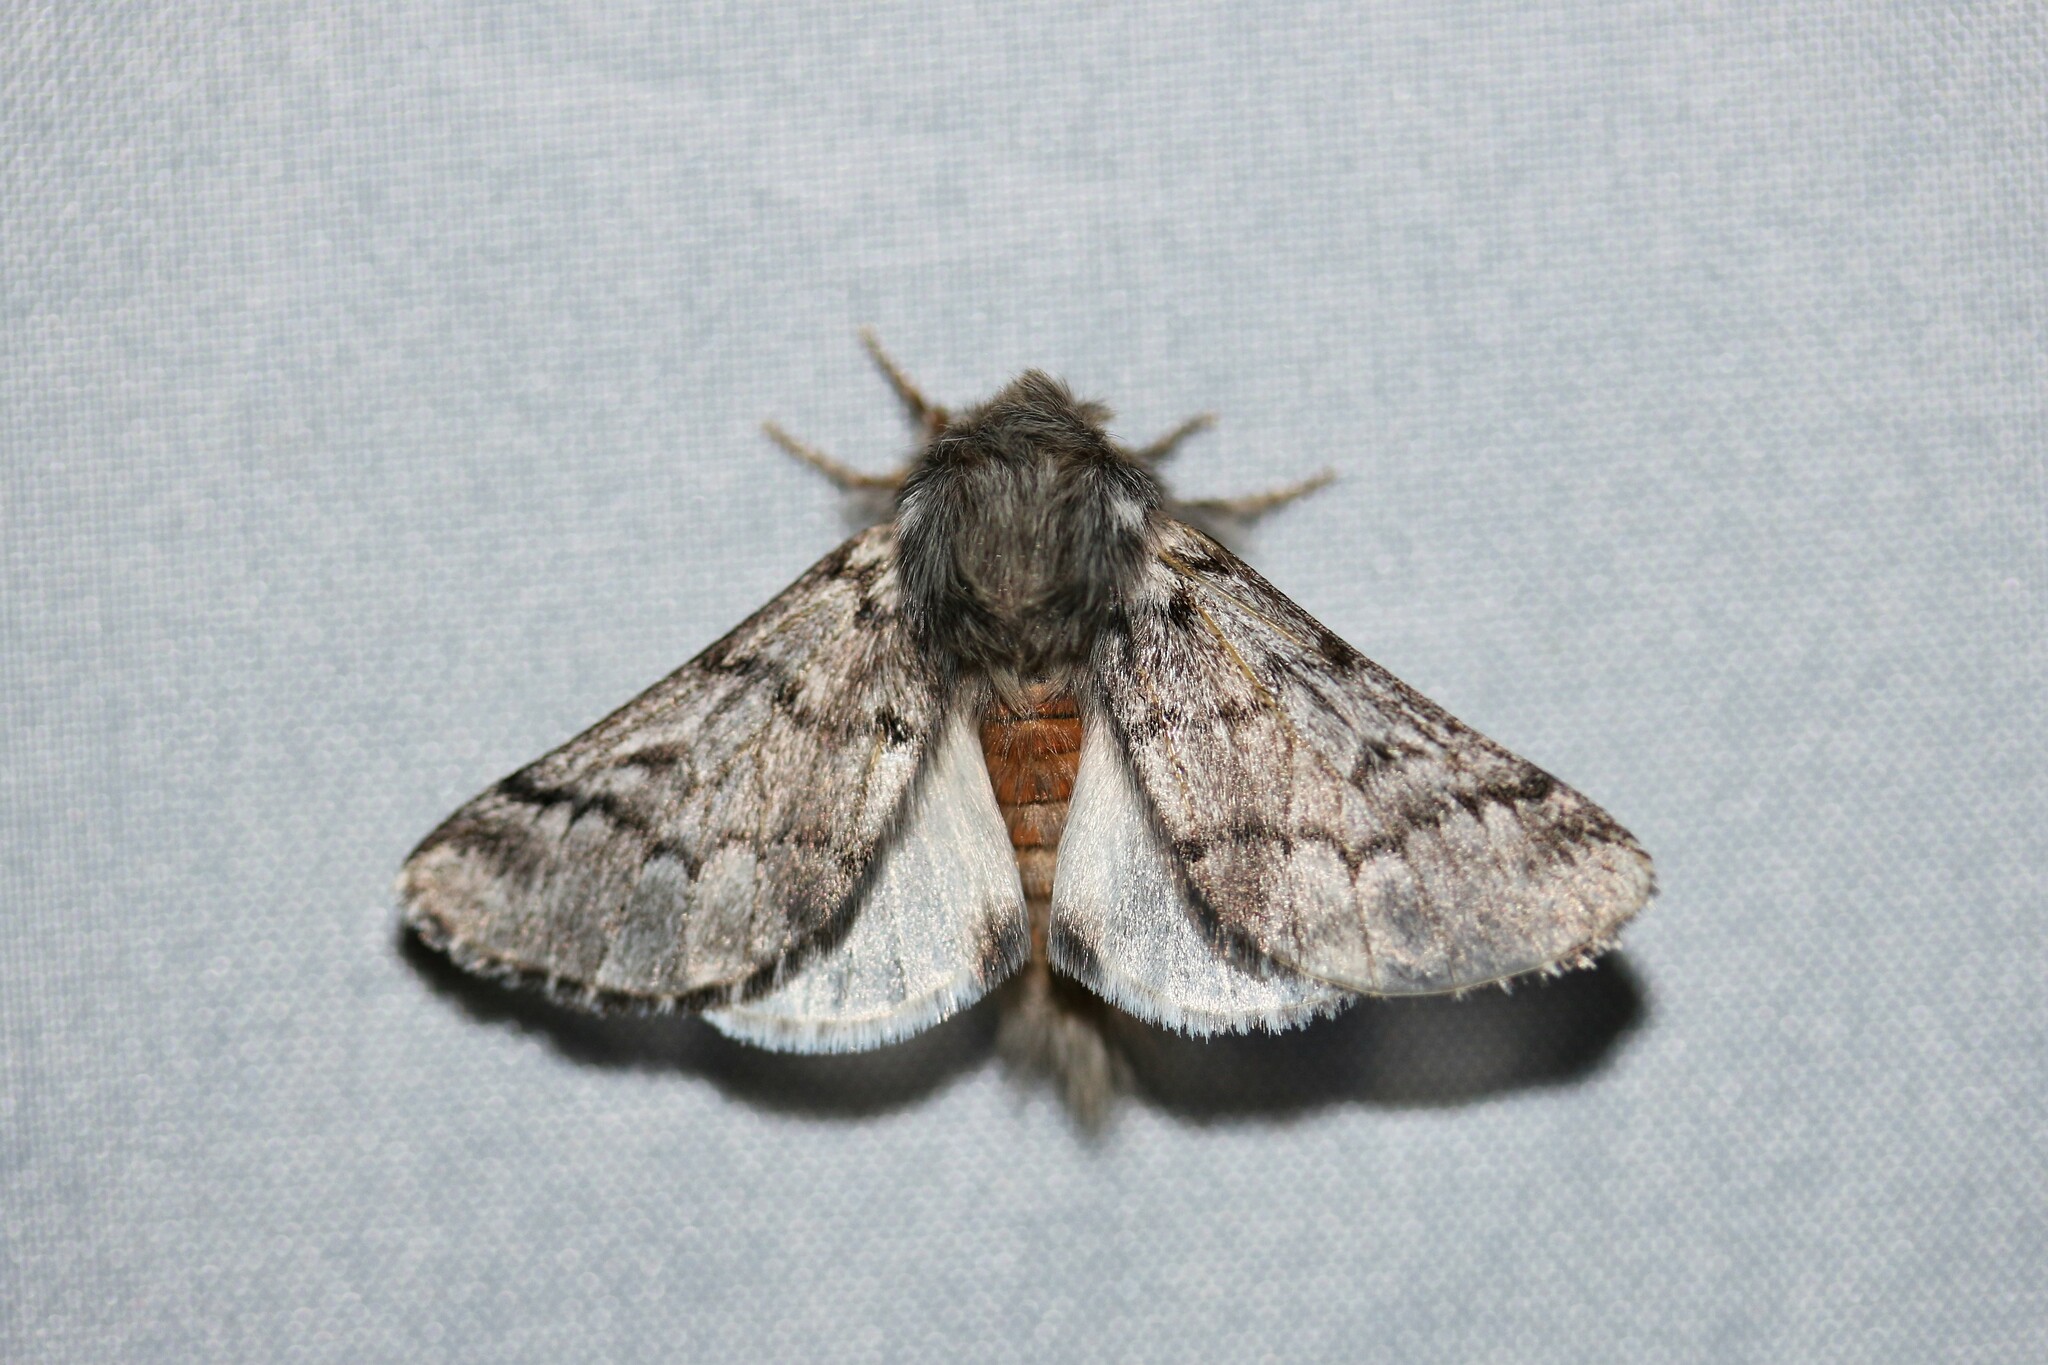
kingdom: Animalia
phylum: Arthropoda
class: Insecta
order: Lepidoptera
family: Notodontidae
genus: Thaumetopoea
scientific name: Thaumetopoea pityocampa
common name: Pine processionary
